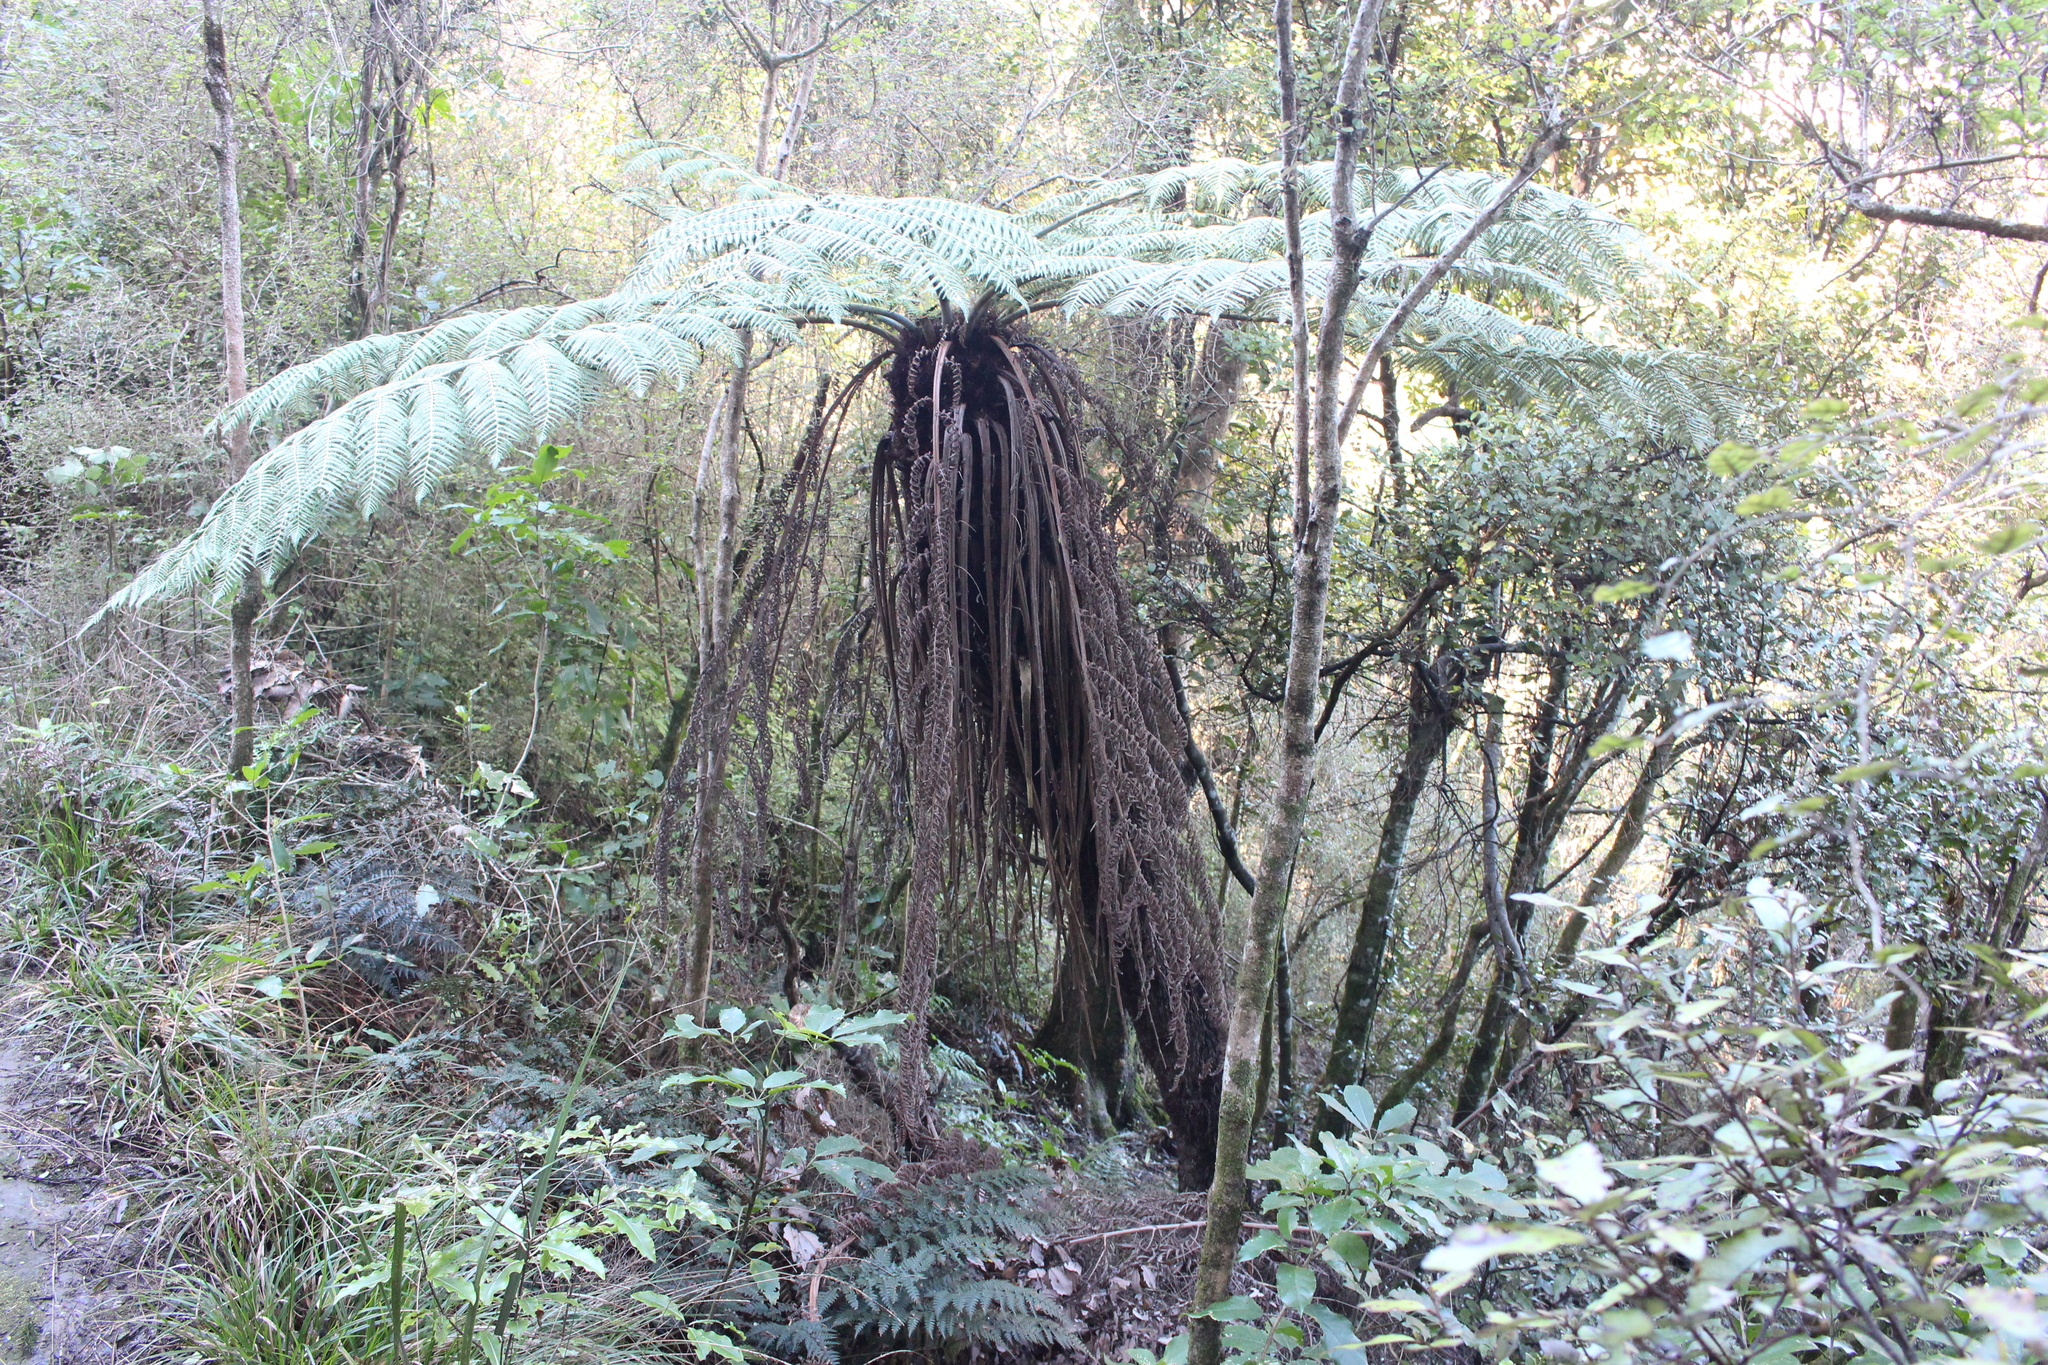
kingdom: Plantae
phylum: Tracheophyta
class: Polypodiopsida
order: Cyatheales
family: Cyatheaceae
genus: Alsophila
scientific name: Alsophila dealbata
